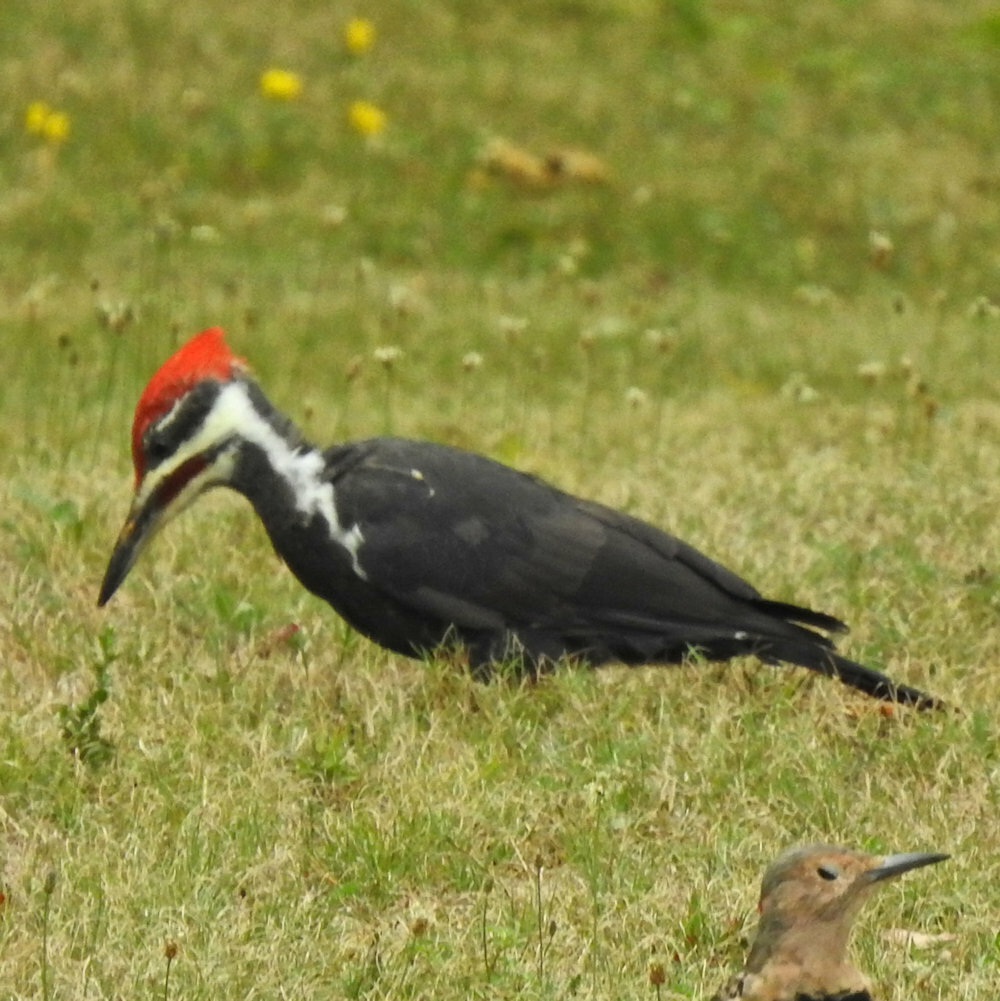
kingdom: Animalia
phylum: Chordata
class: Aves
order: Piciformes
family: Picidae
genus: Dryocopus
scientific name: Dryocopus pileatus
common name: Pileated woodpecker
